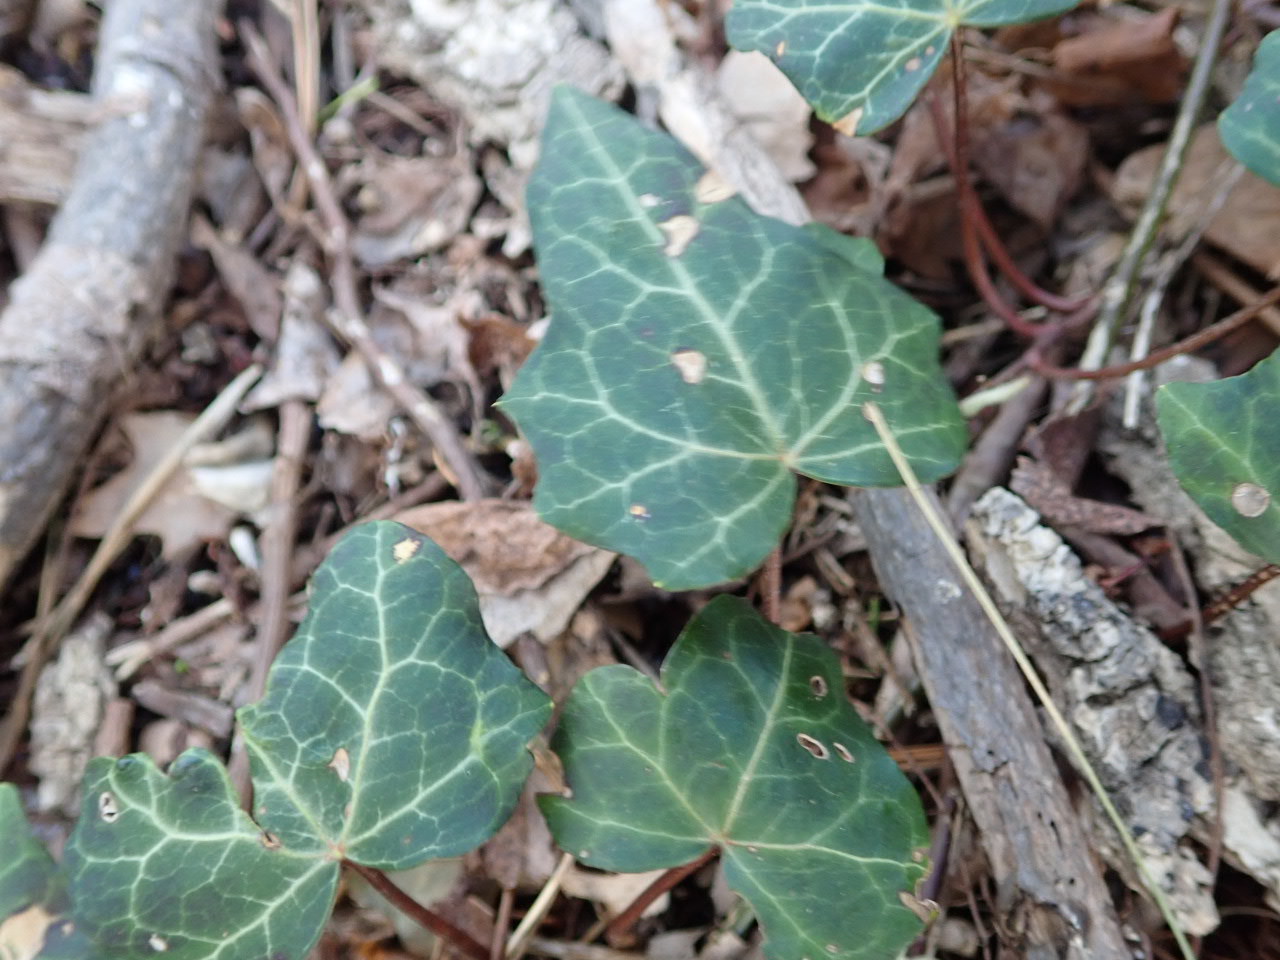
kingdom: Plantae
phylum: Tracheophyta
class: Magnoliopsida
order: Apiales
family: Araliaceae
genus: Hedera
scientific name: Hedera helix
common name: Ivy
